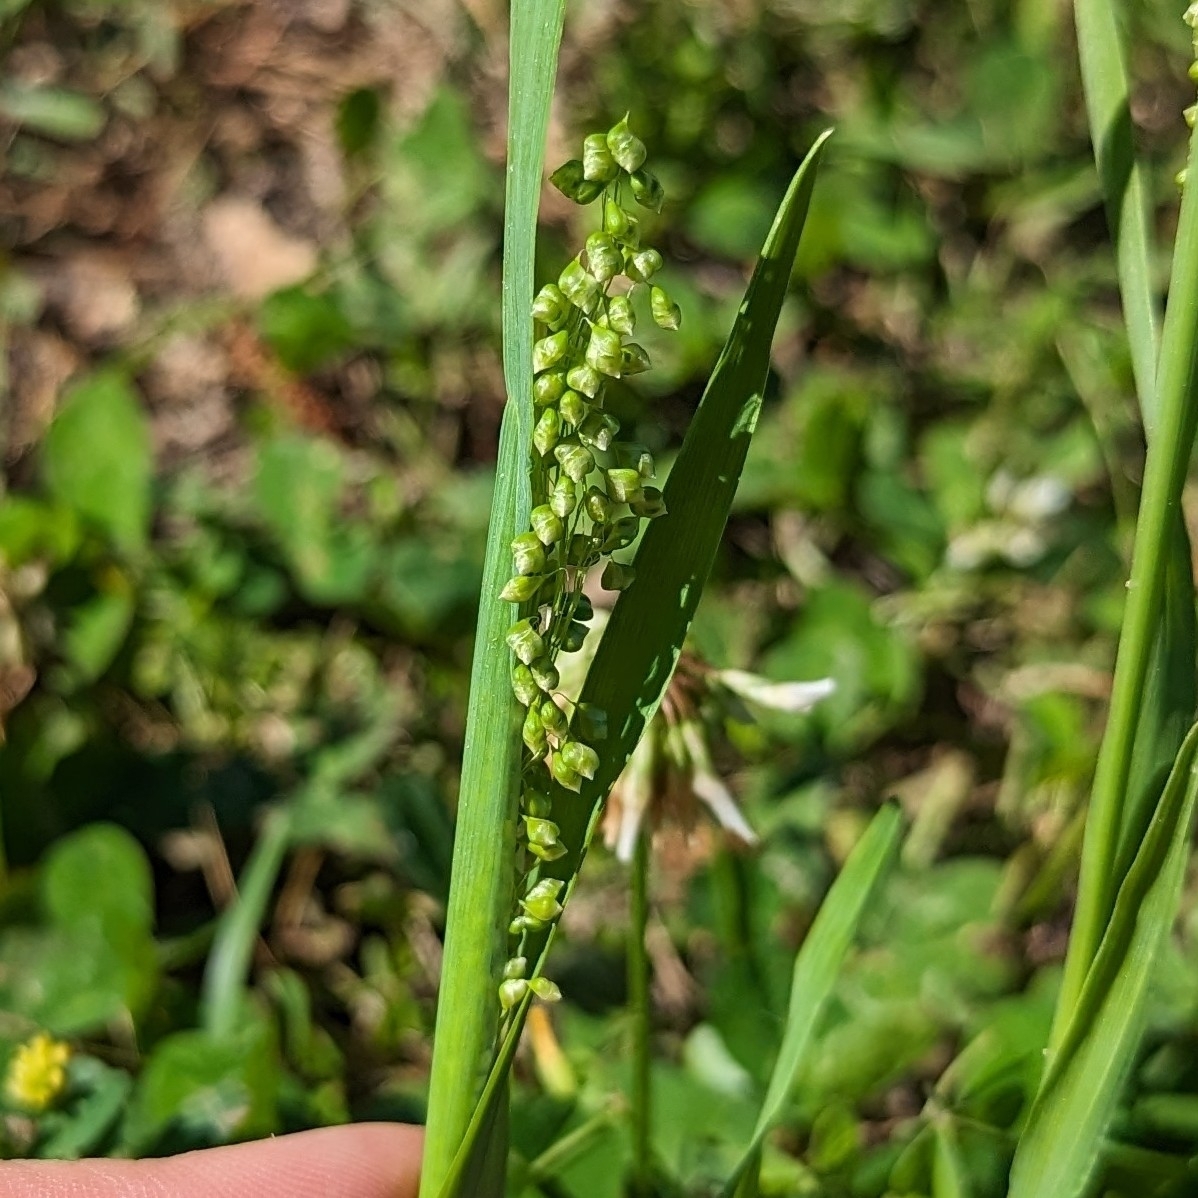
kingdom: Plantae
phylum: Tracheophyta
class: Liliopsida
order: Poales
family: Poaceae
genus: Briza
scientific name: Briza minor
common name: Lesser quaking-grass
